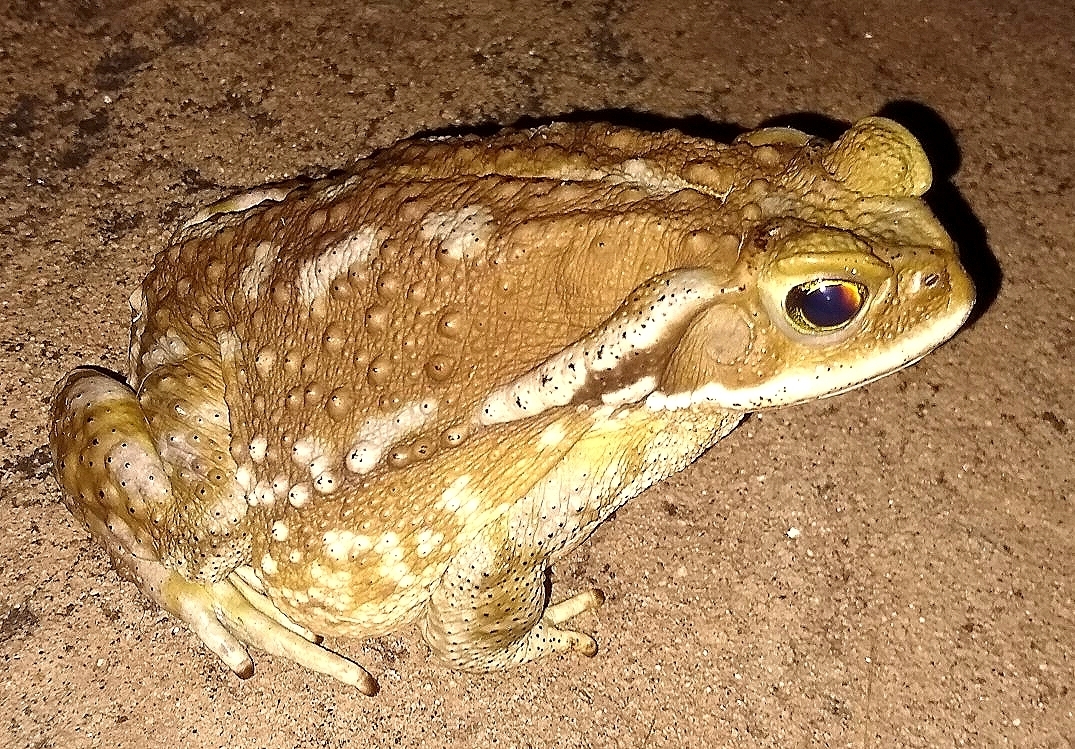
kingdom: Animalia
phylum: Chordata
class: Amphibia
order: Anura
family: Bufonidae
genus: Rhinella
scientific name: Rhinella arenarum
